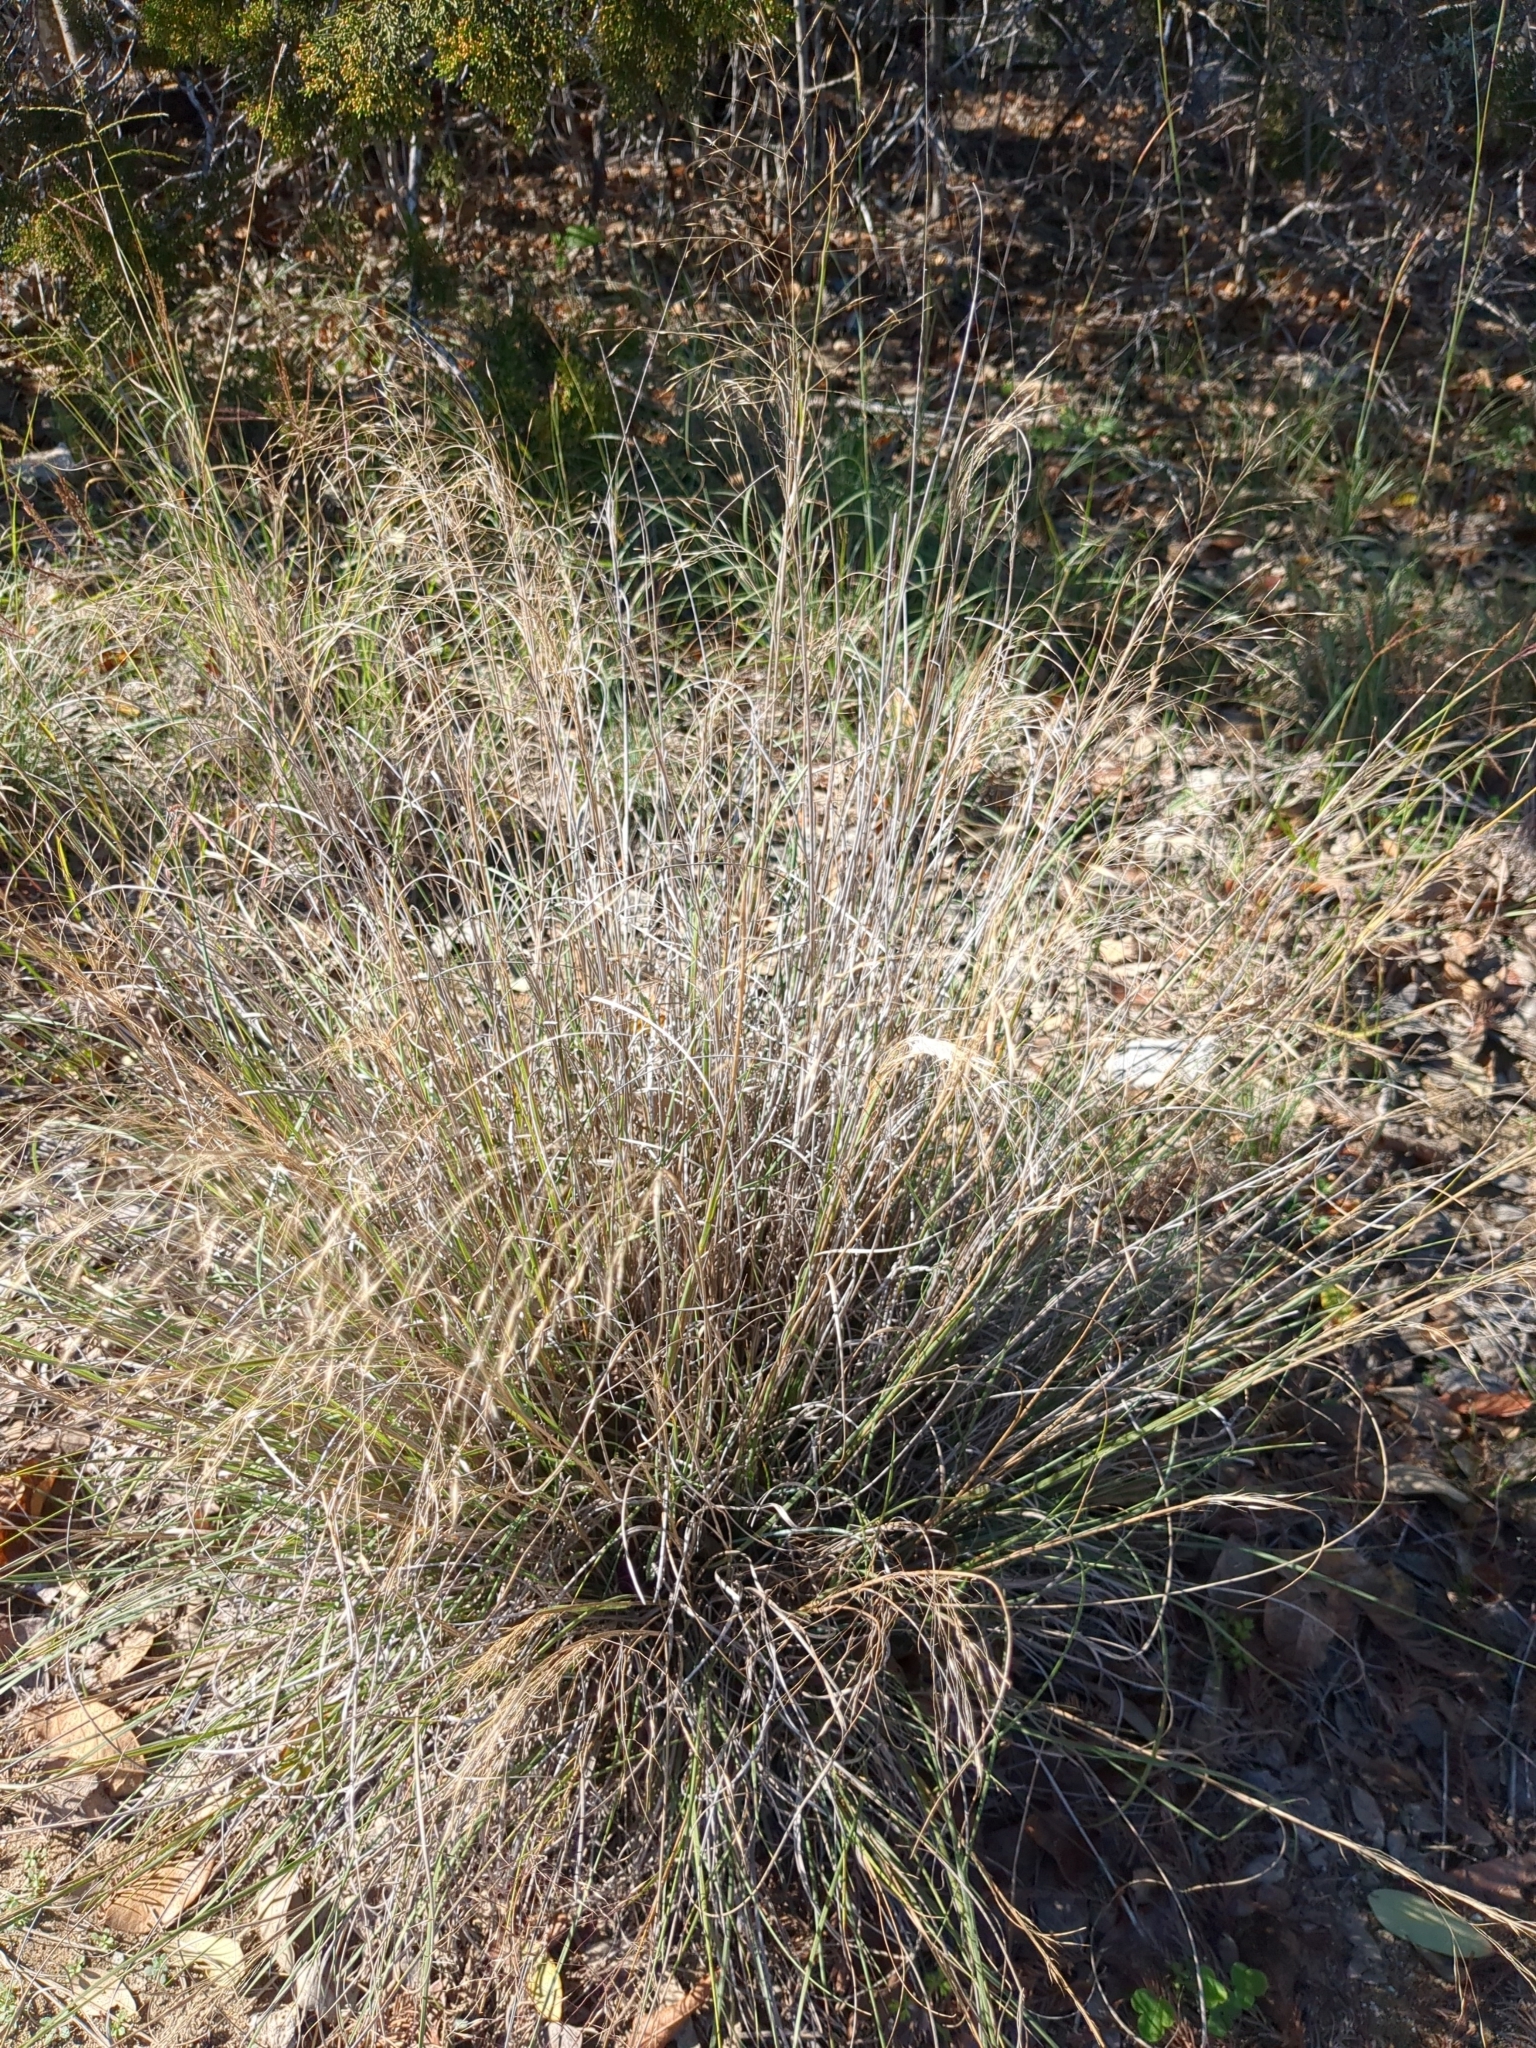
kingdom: Plantae
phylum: Tracheophyta
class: Liliopsida
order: Poales
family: Poaceae
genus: Muhlenbergia
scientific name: Muhlenbergia reverchonii
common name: Seep muhly
